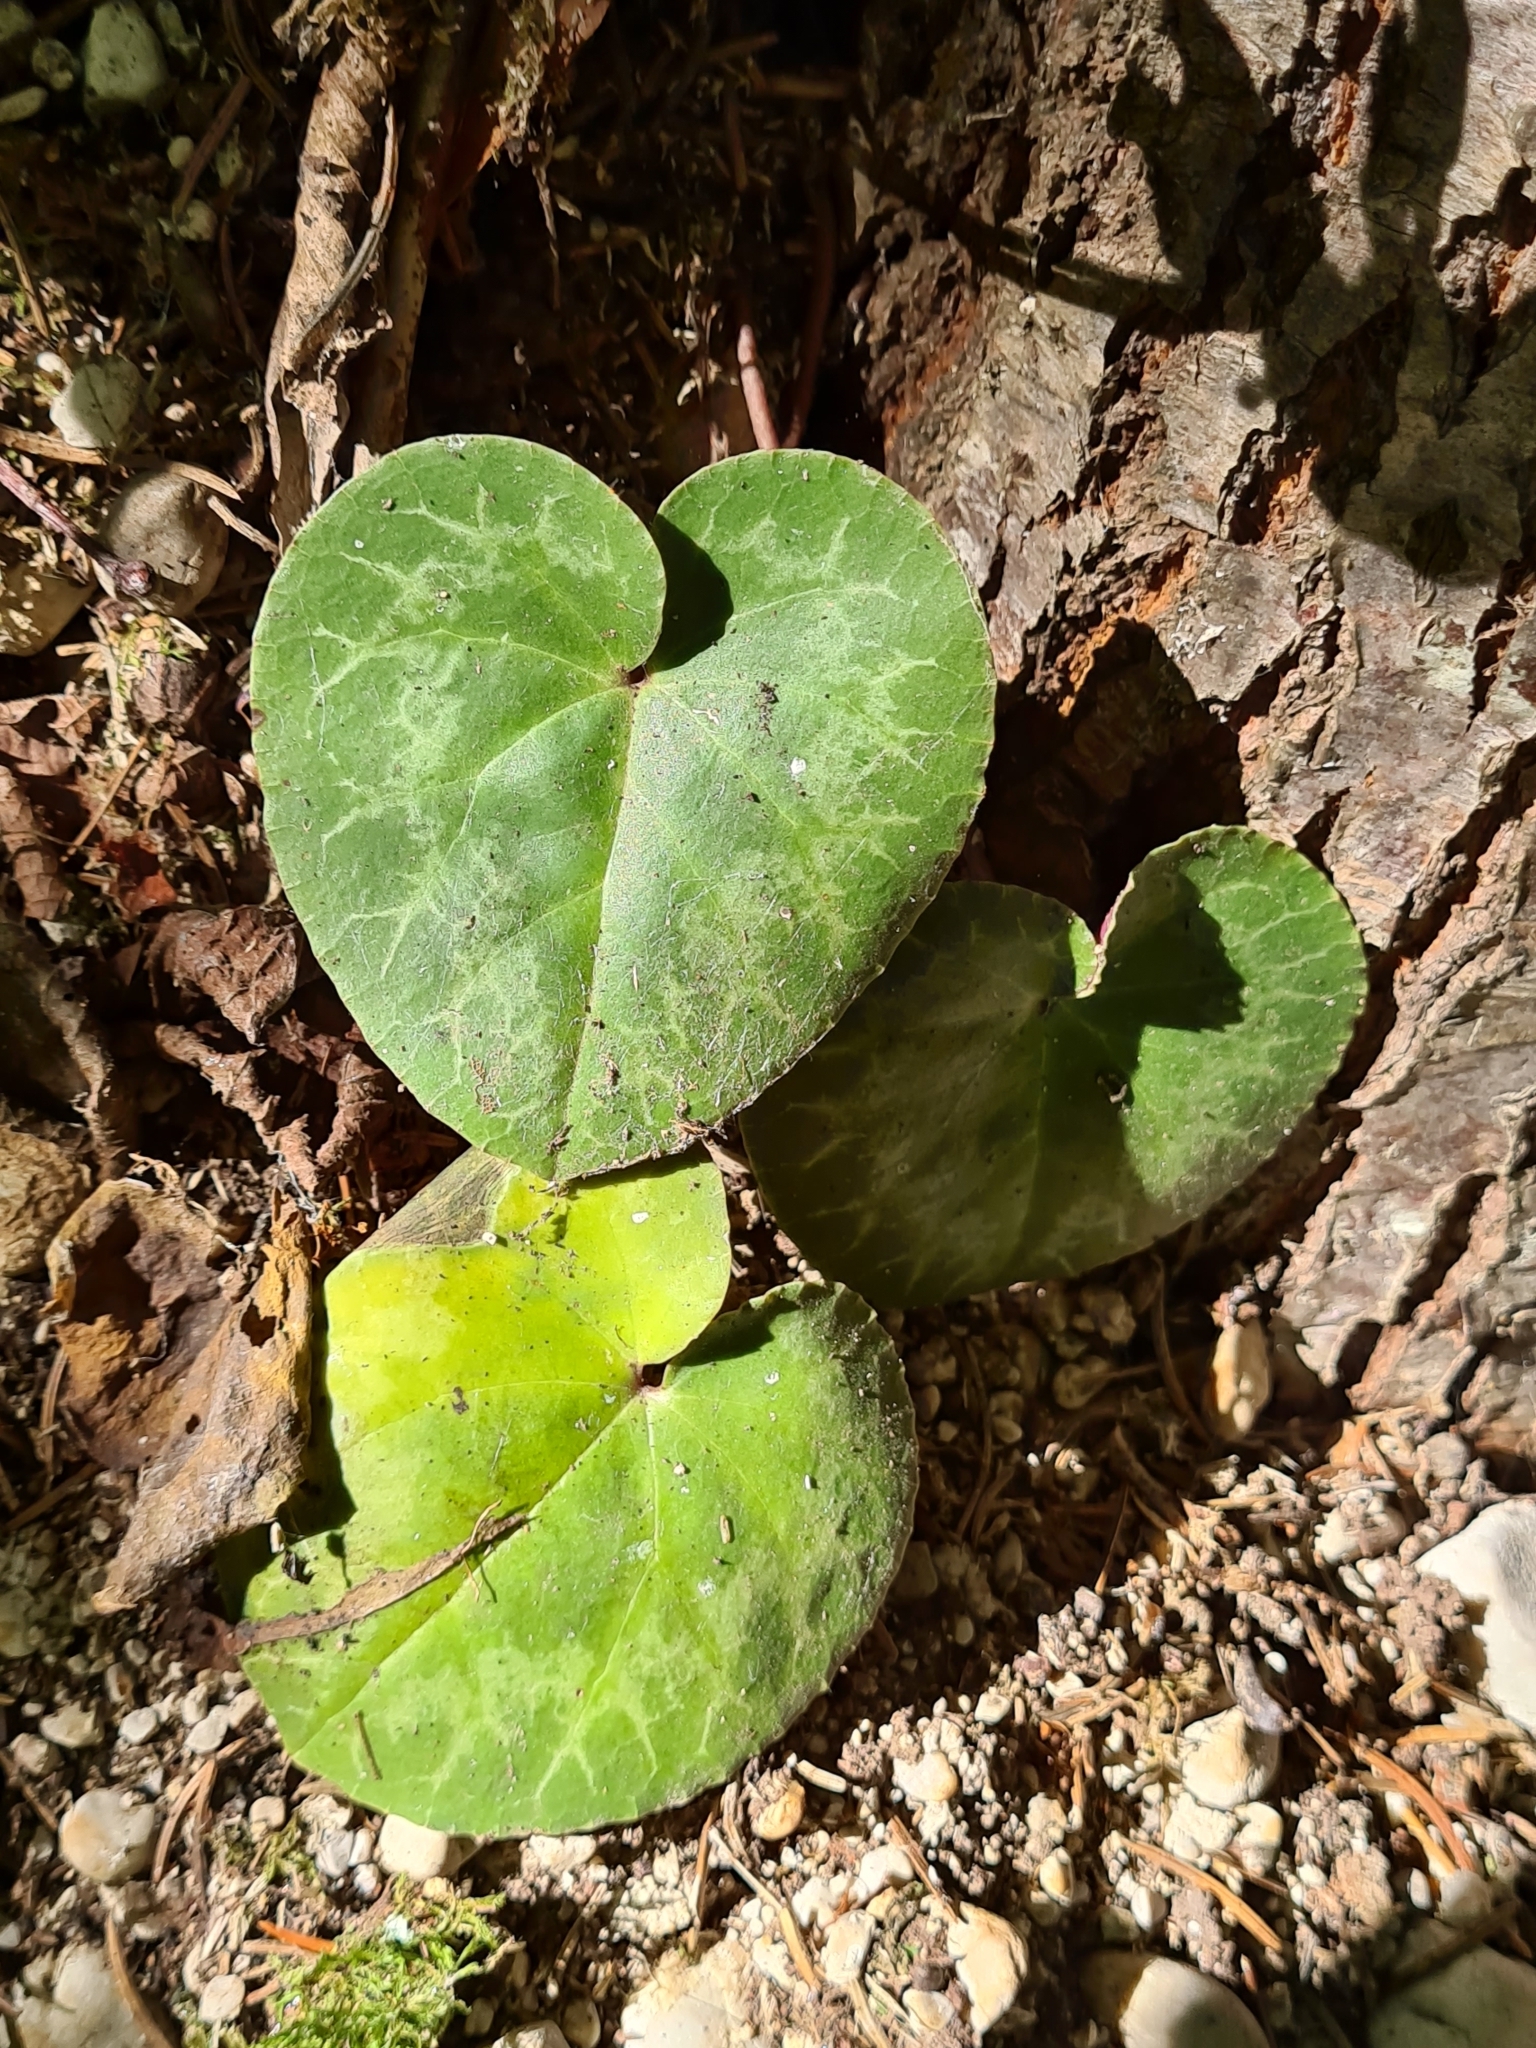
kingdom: Plantae
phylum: Tracheophyta
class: Magnoliopsida
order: Ericales
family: Primulaceae
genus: Cyclamen
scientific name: Cyclamen purpurascens
